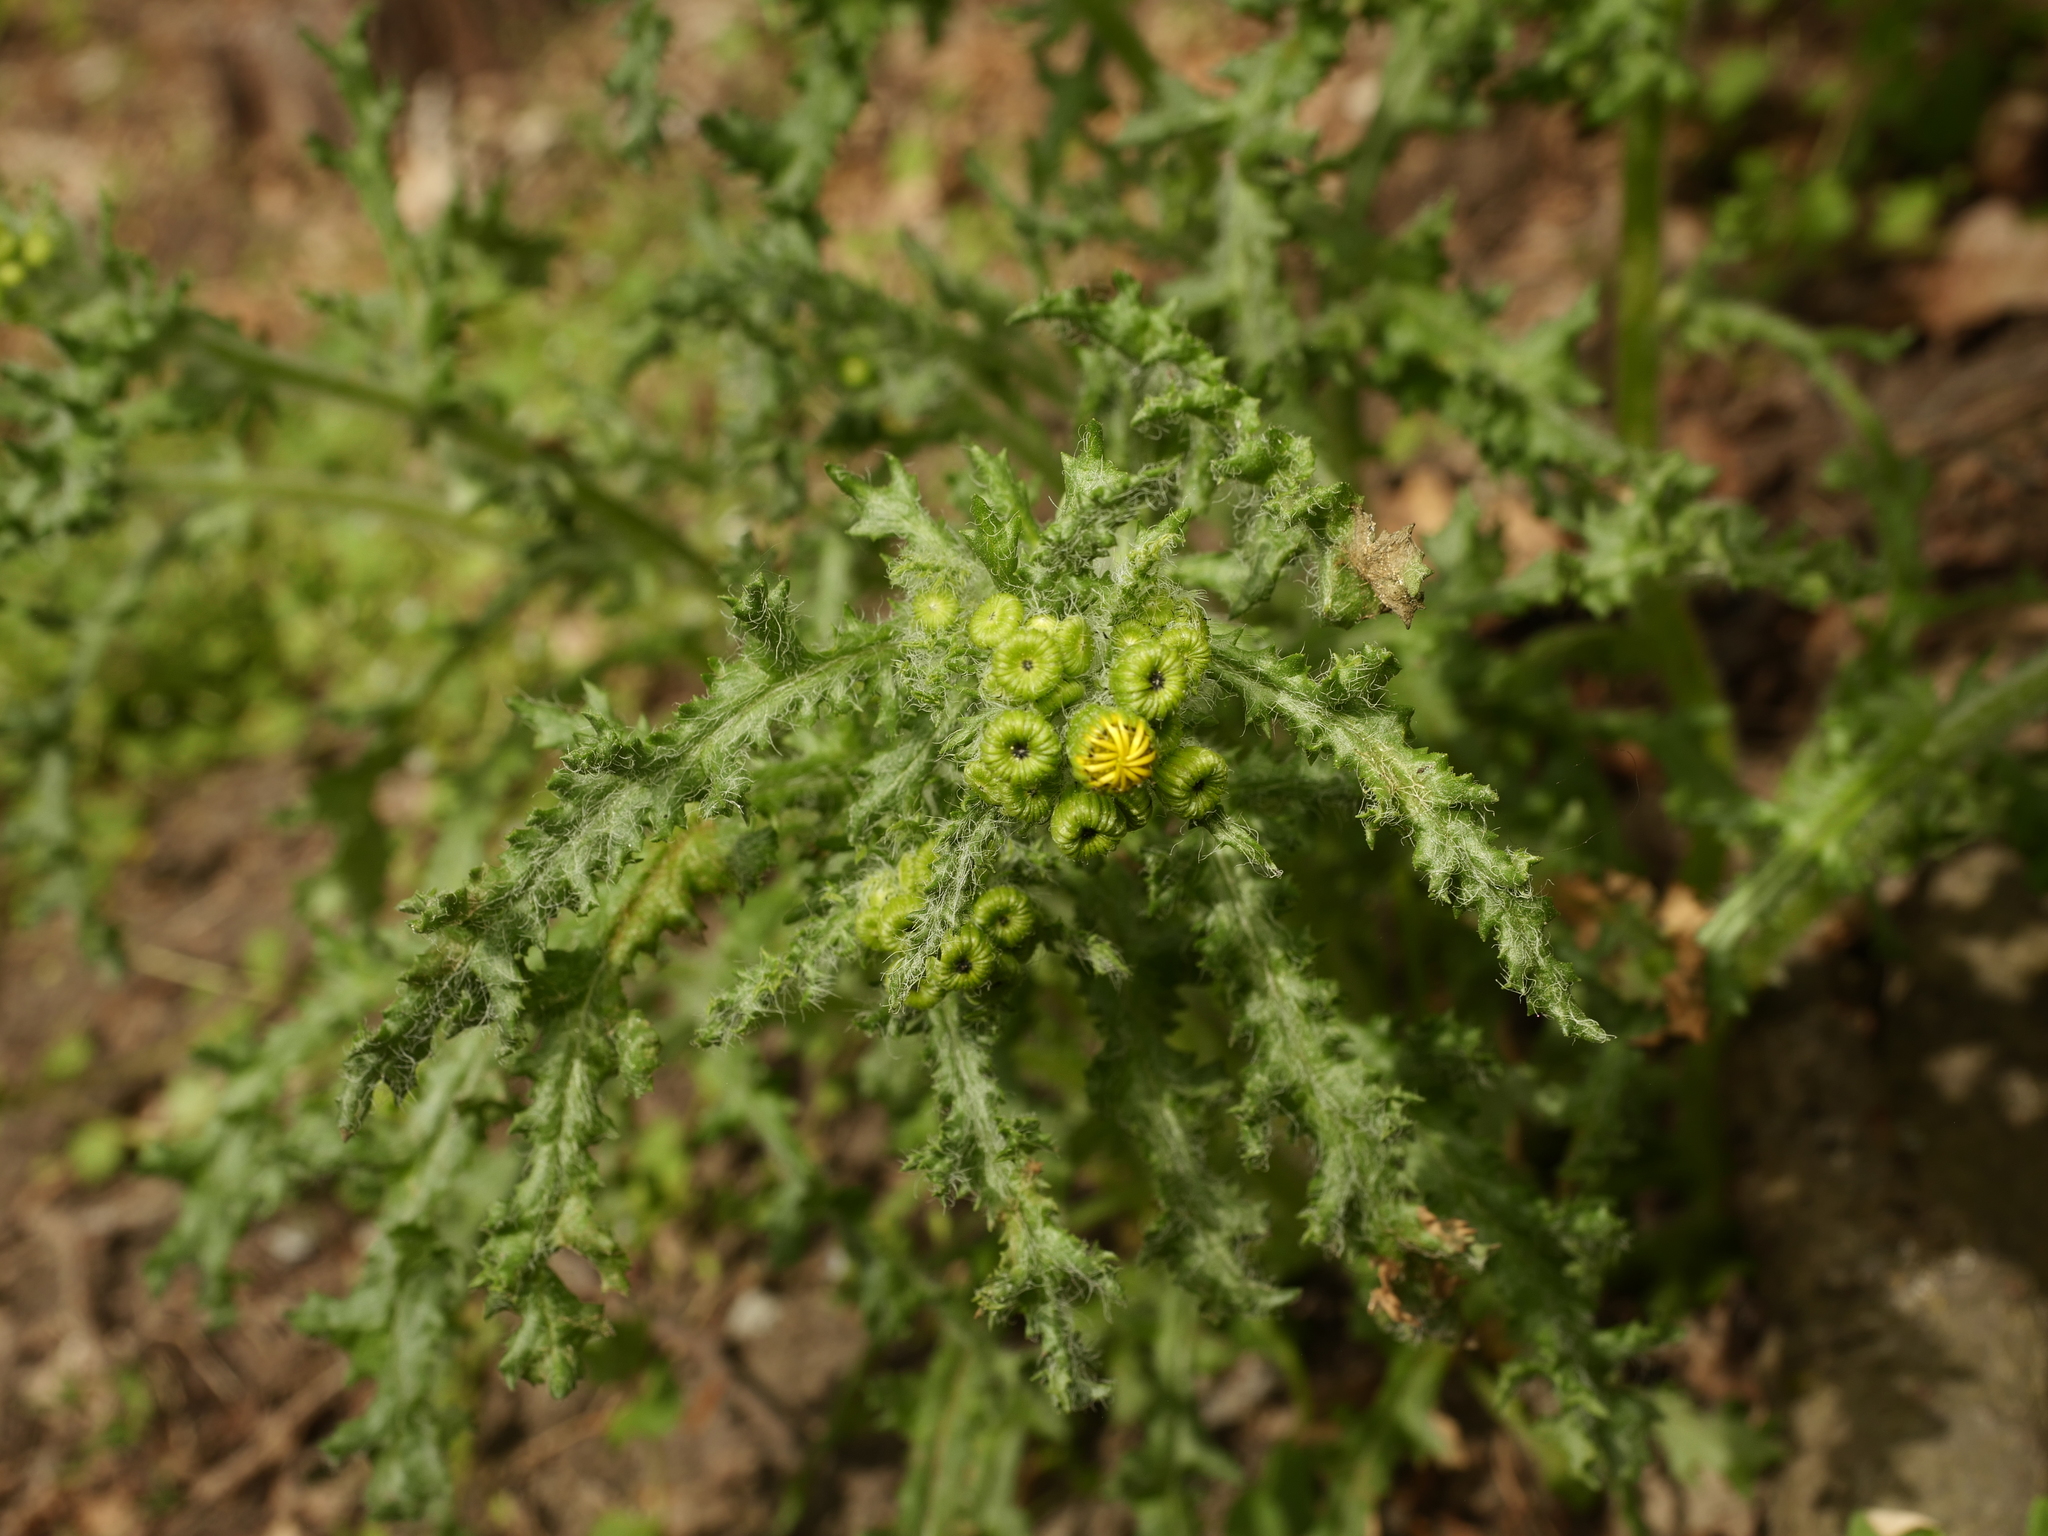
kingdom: Plantae
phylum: Tracheophyta
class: Magnoliopsida
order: Asterales
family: Asteraceae
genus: Senecio
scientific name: Senecio vernalis
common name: Eastern groundsel
